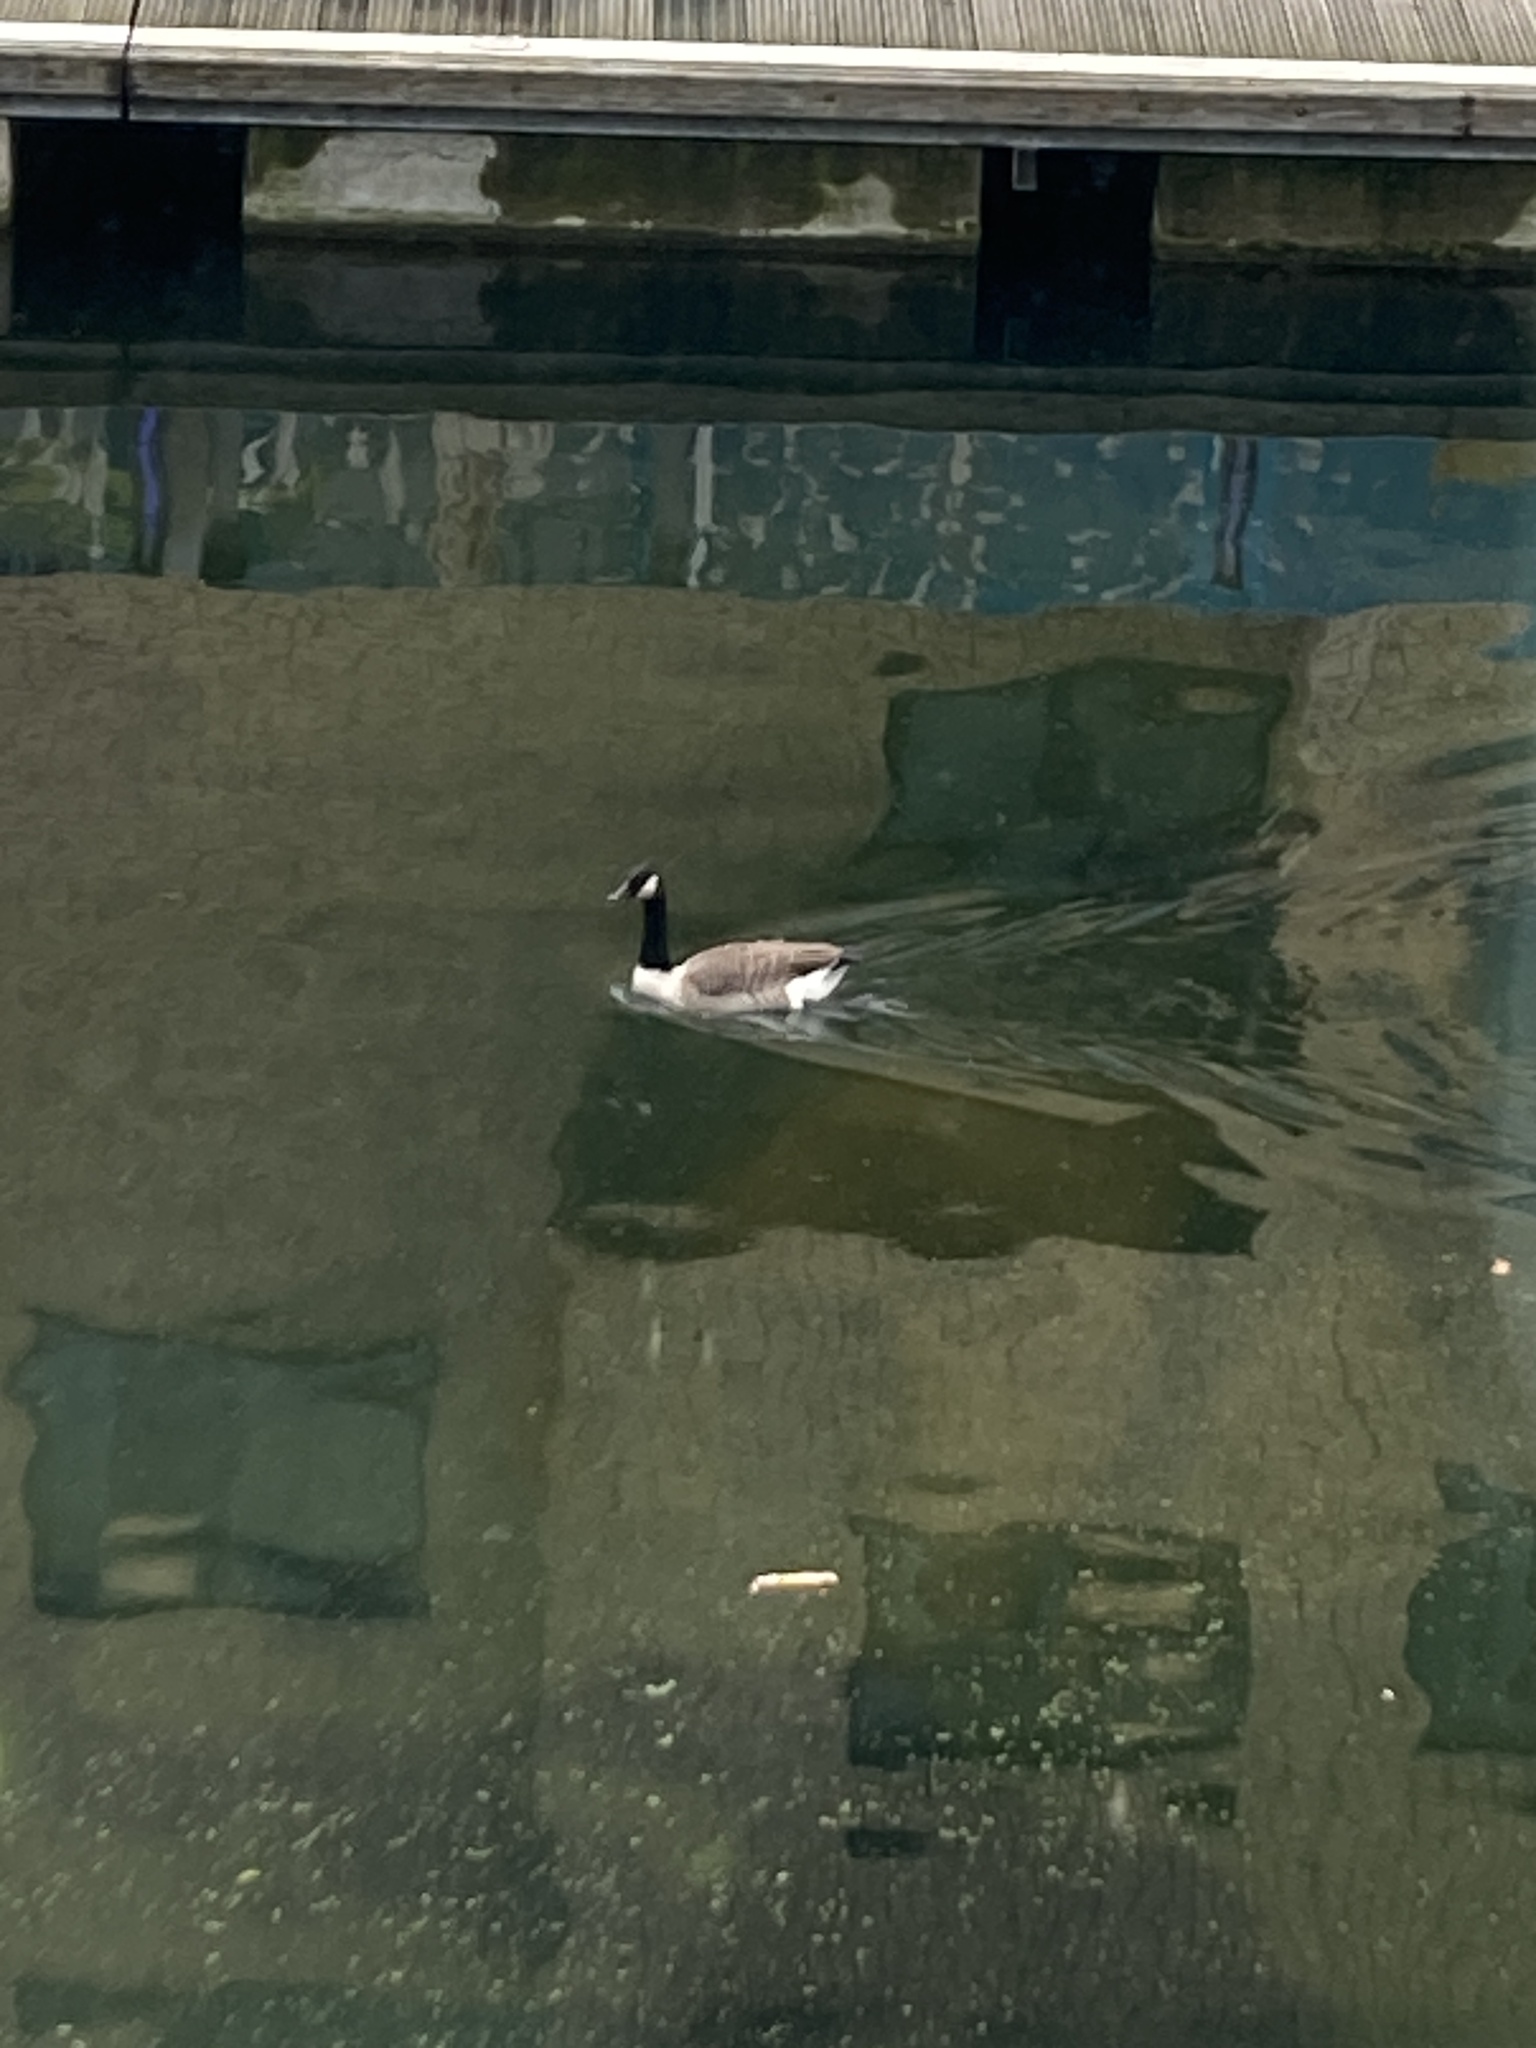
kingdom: Animalia
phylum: Chordata
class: Aves
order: Anseriformes
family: Anatidae
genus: Branta
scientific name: Branta canadensis
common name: Canada goose
